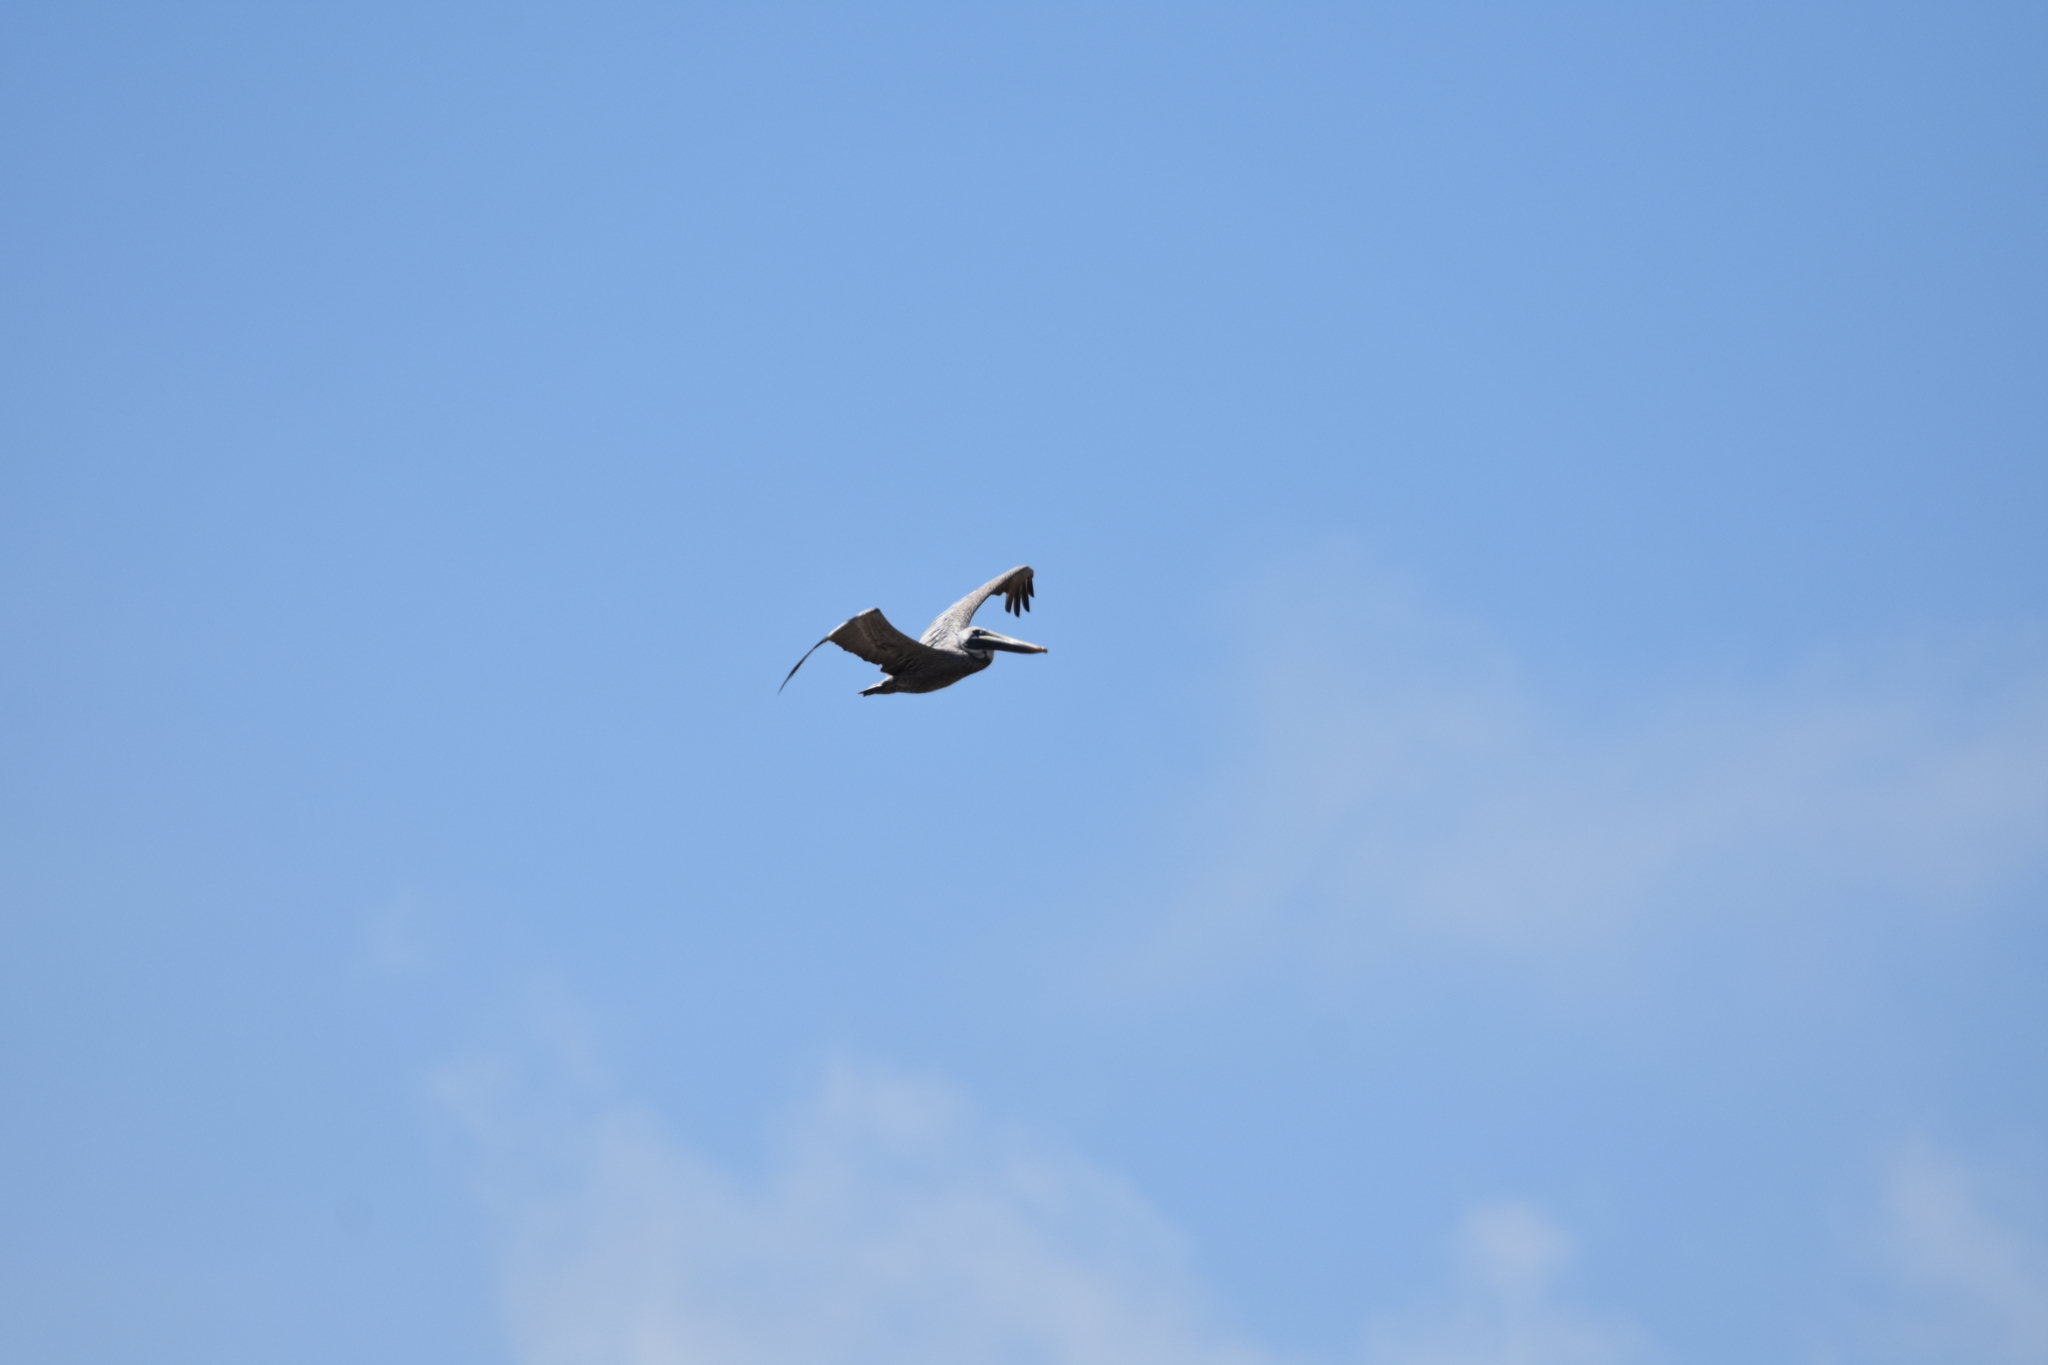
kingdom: Animalia
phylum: Chordata
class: Aves
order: Pelecaniformes
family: Pelecanidae
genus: Pelecanus
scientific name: Pelecanus occidentalis
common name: Brown pelican
